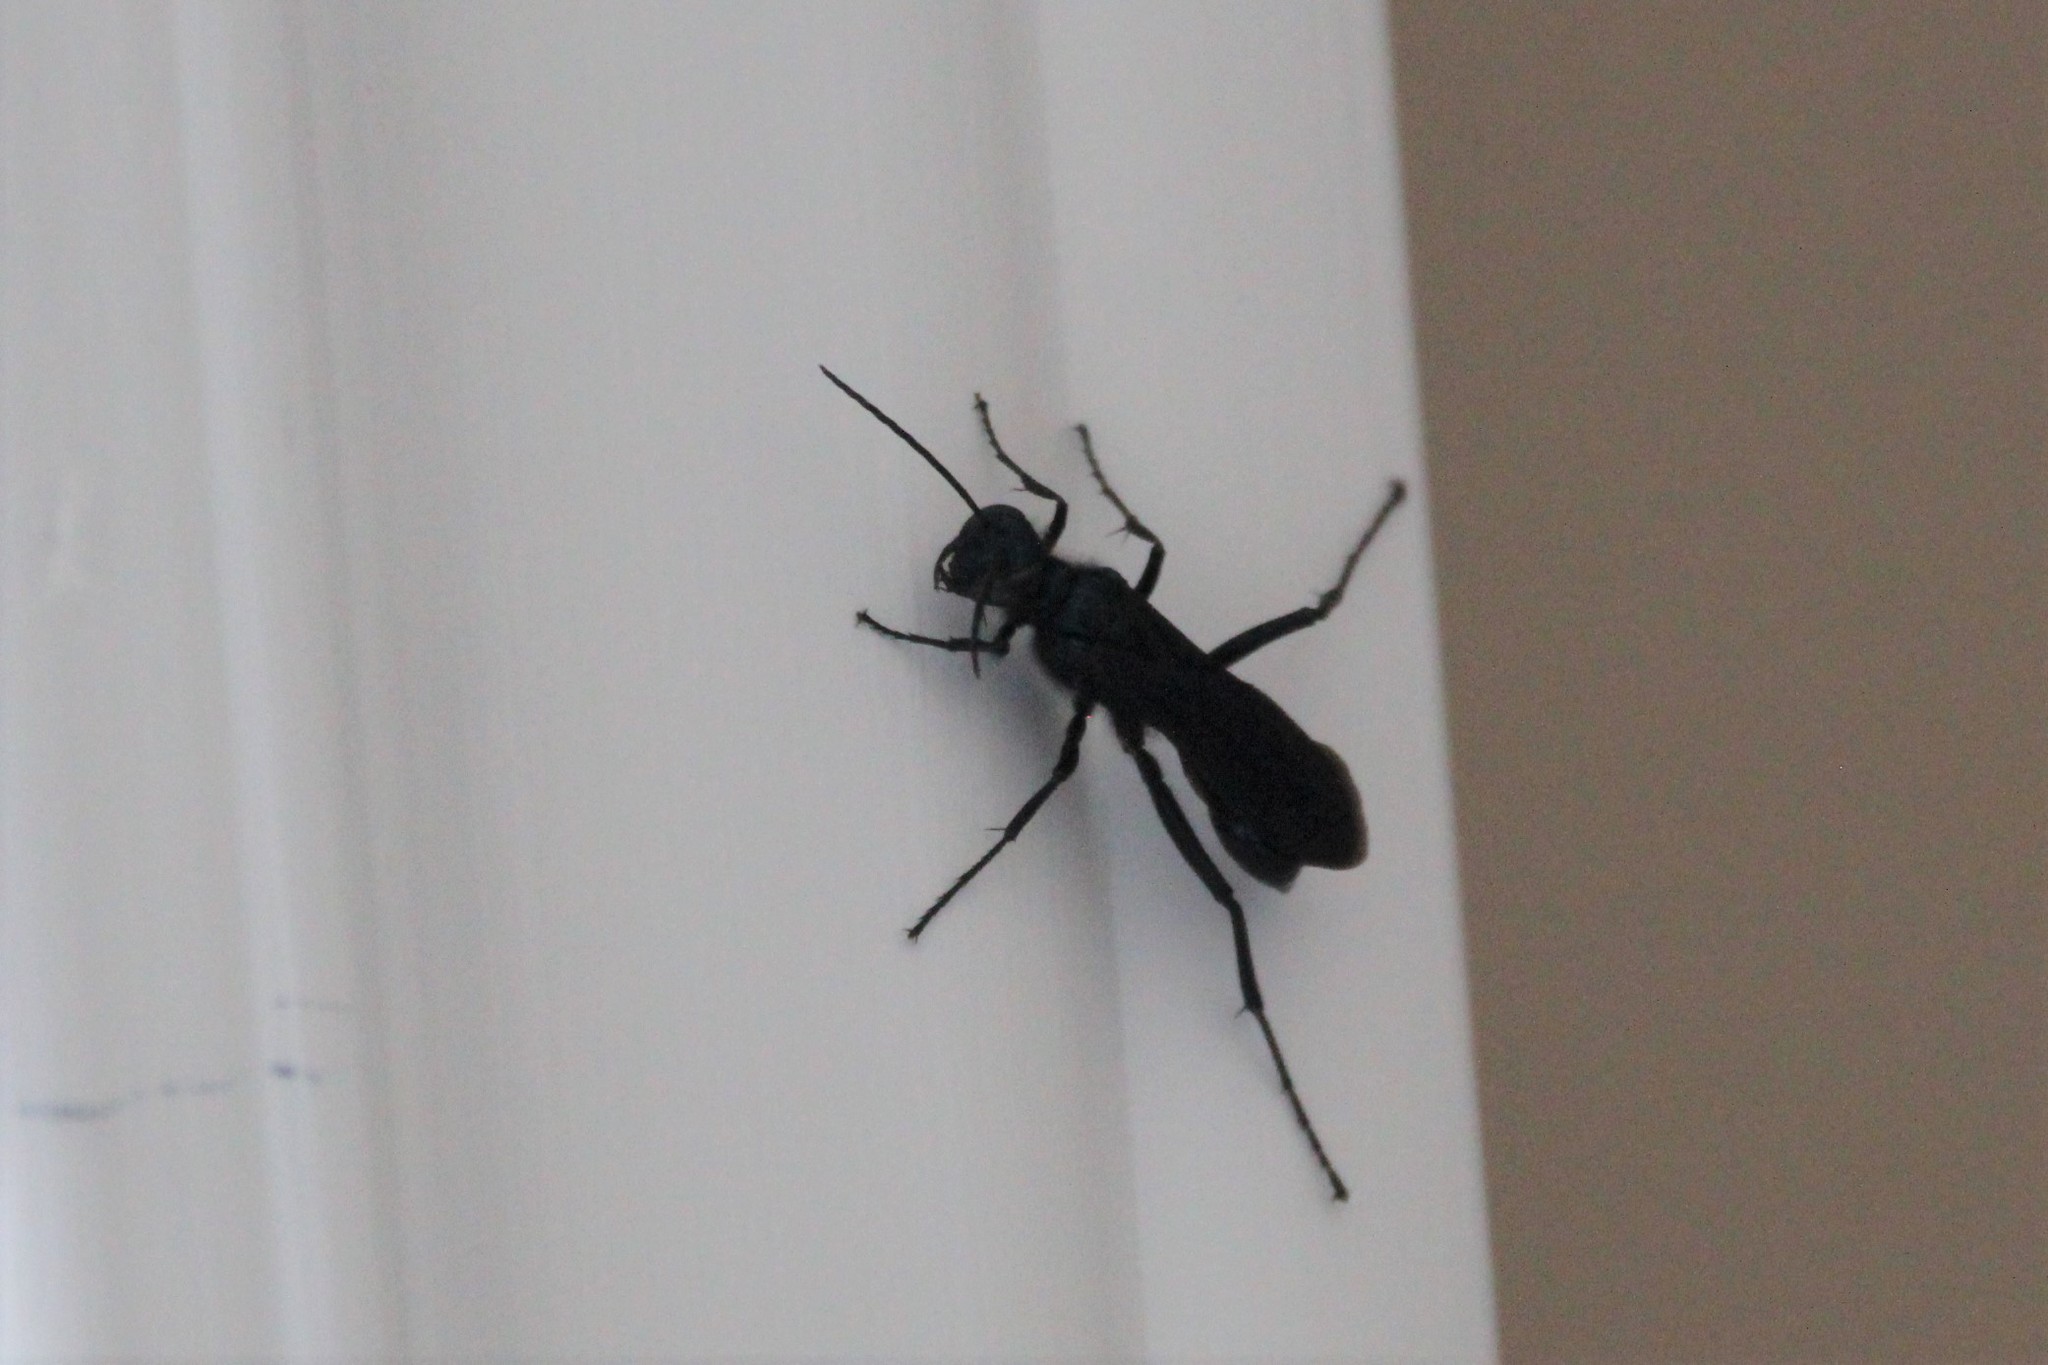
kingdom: Animalia
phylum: Arthropoda
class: Insecta
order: Hymenoptera
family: Sphecidae
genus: Chalybion
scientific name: Chalybion californicum
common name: Mud dauber
